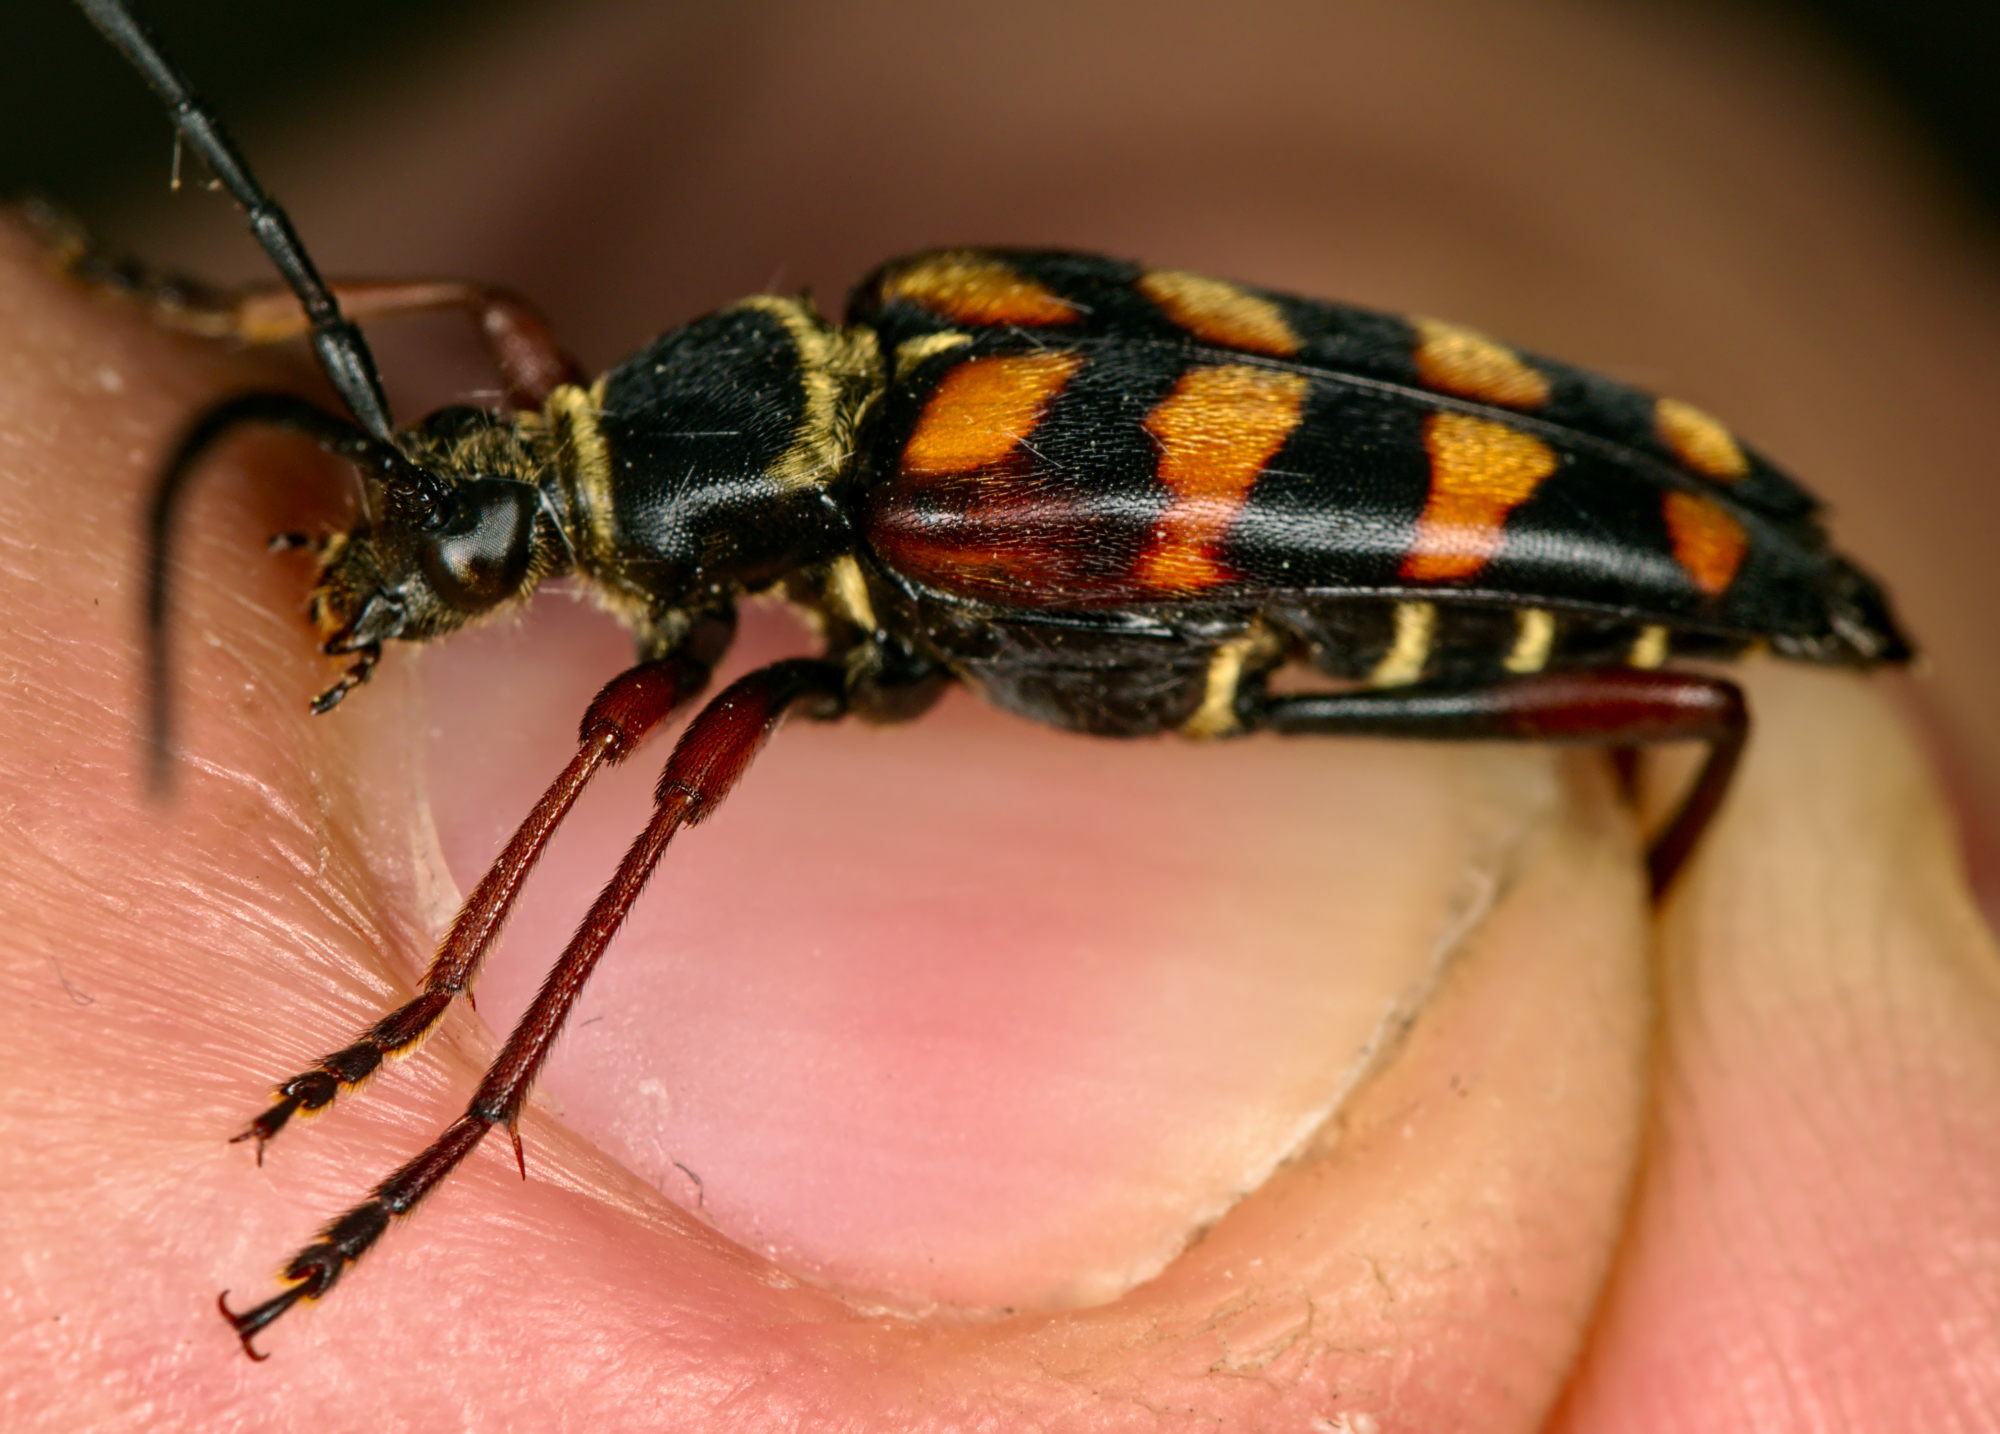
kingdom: Animalia
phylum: Arthropoda
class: Insecta
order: Coleoptera
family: Cerambycidae
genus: Leptura
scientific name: Leptura aurulenta
